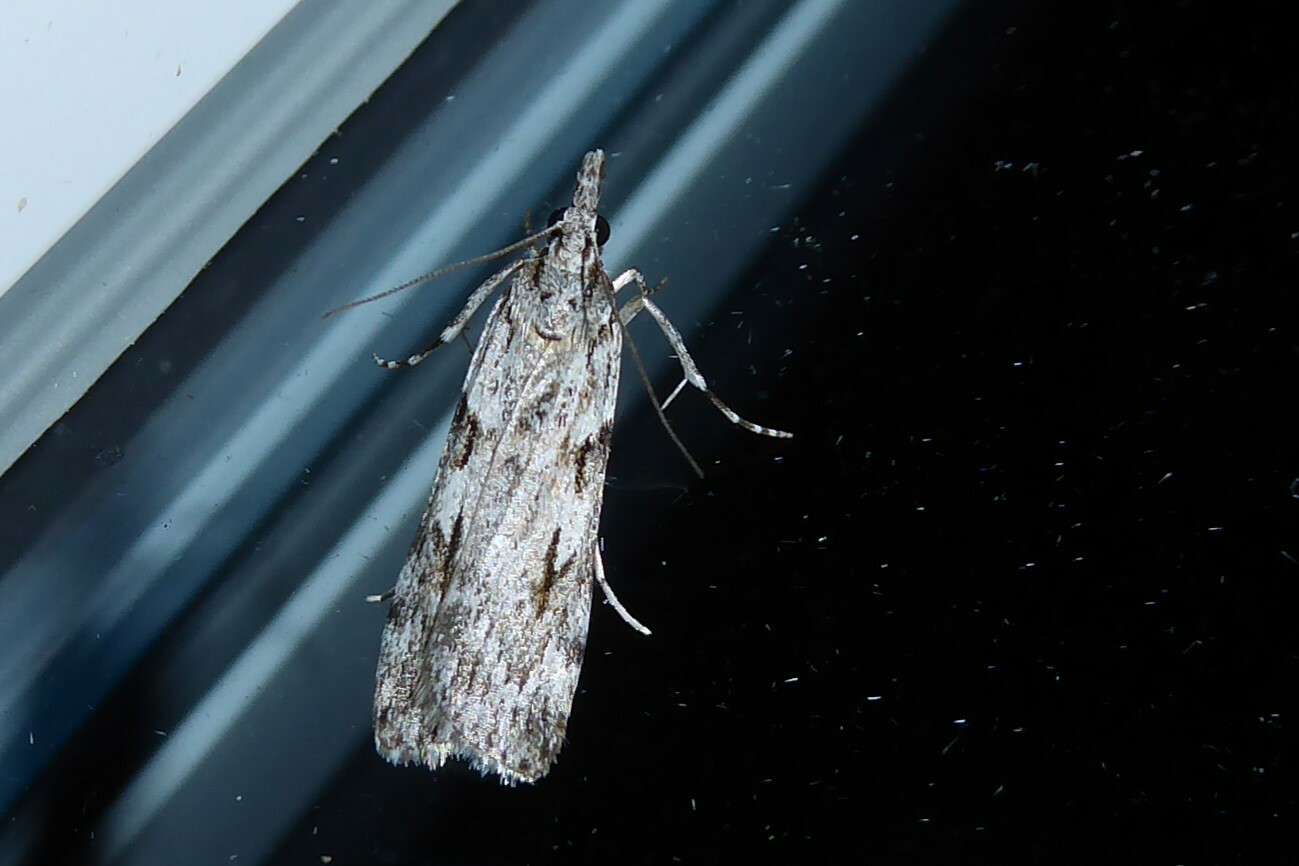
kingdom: Animalia
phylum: Arthropoda
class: Insecta
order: Lepidoptera
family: Crambidae
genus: Scoparia
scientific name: Scoparia halopis
